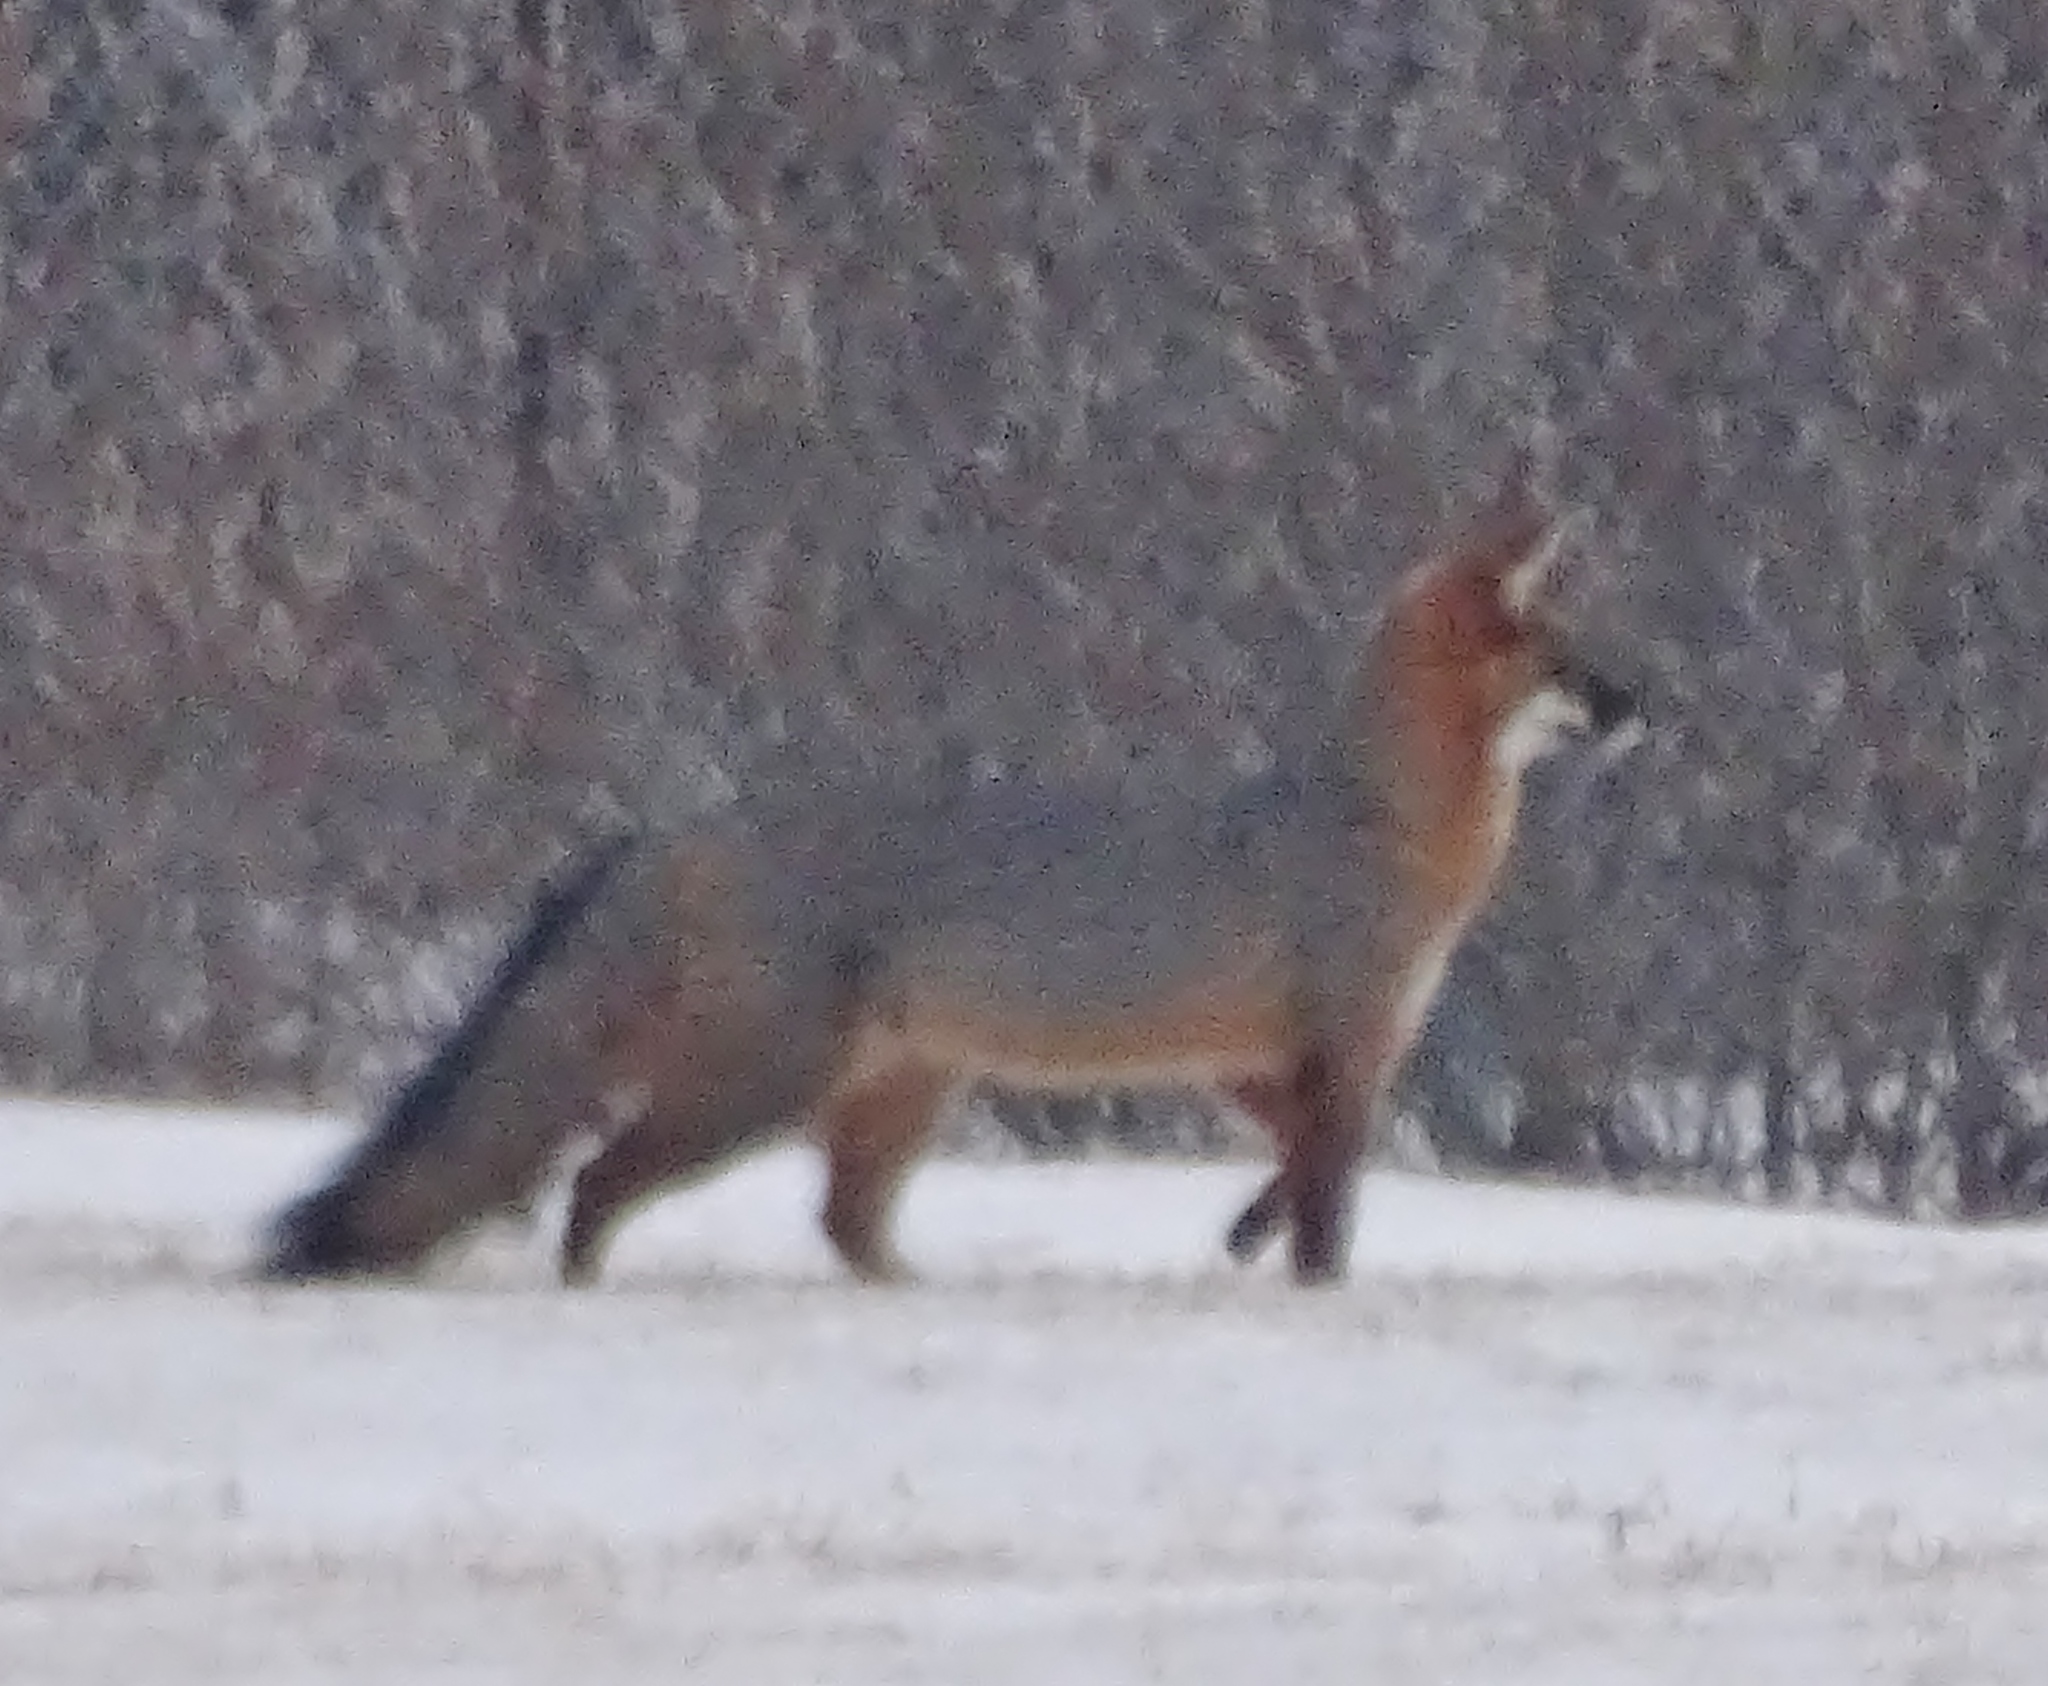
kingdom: Animalia
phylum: Chordata
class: Mammalia
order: Carnivora
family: Canidae
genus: Urocyon
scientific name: Urocyon cinereoargenteus
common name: Gray fox
